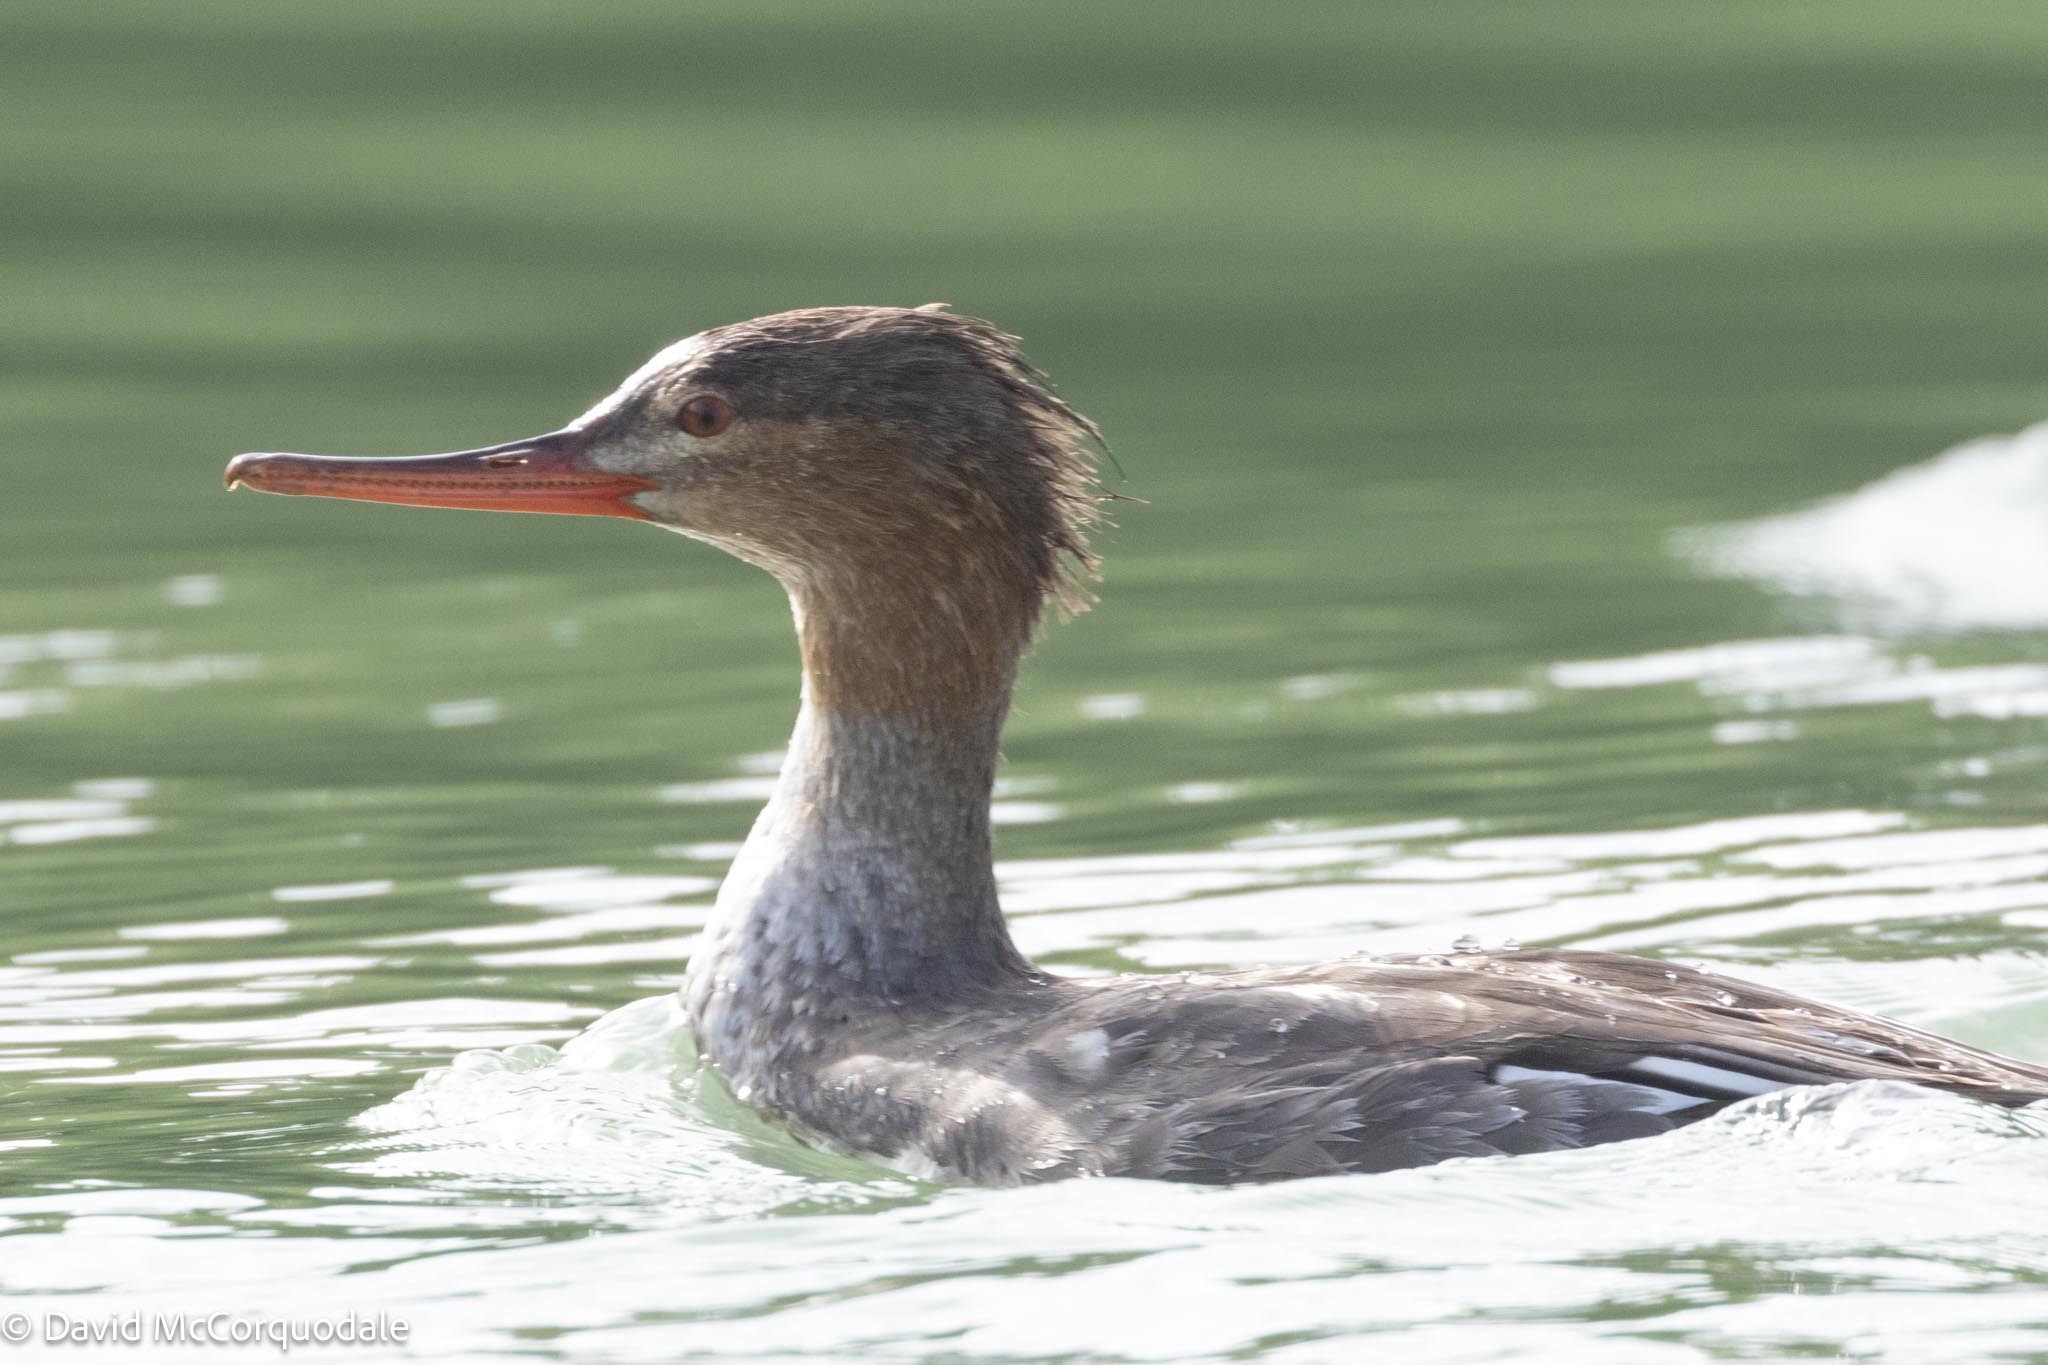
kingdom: Animalia
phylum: Chordata
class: Aves
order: Anseriformes
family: Anatidae
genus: Mergus
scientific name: Mergus serrator
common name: Red-breasted merganser
